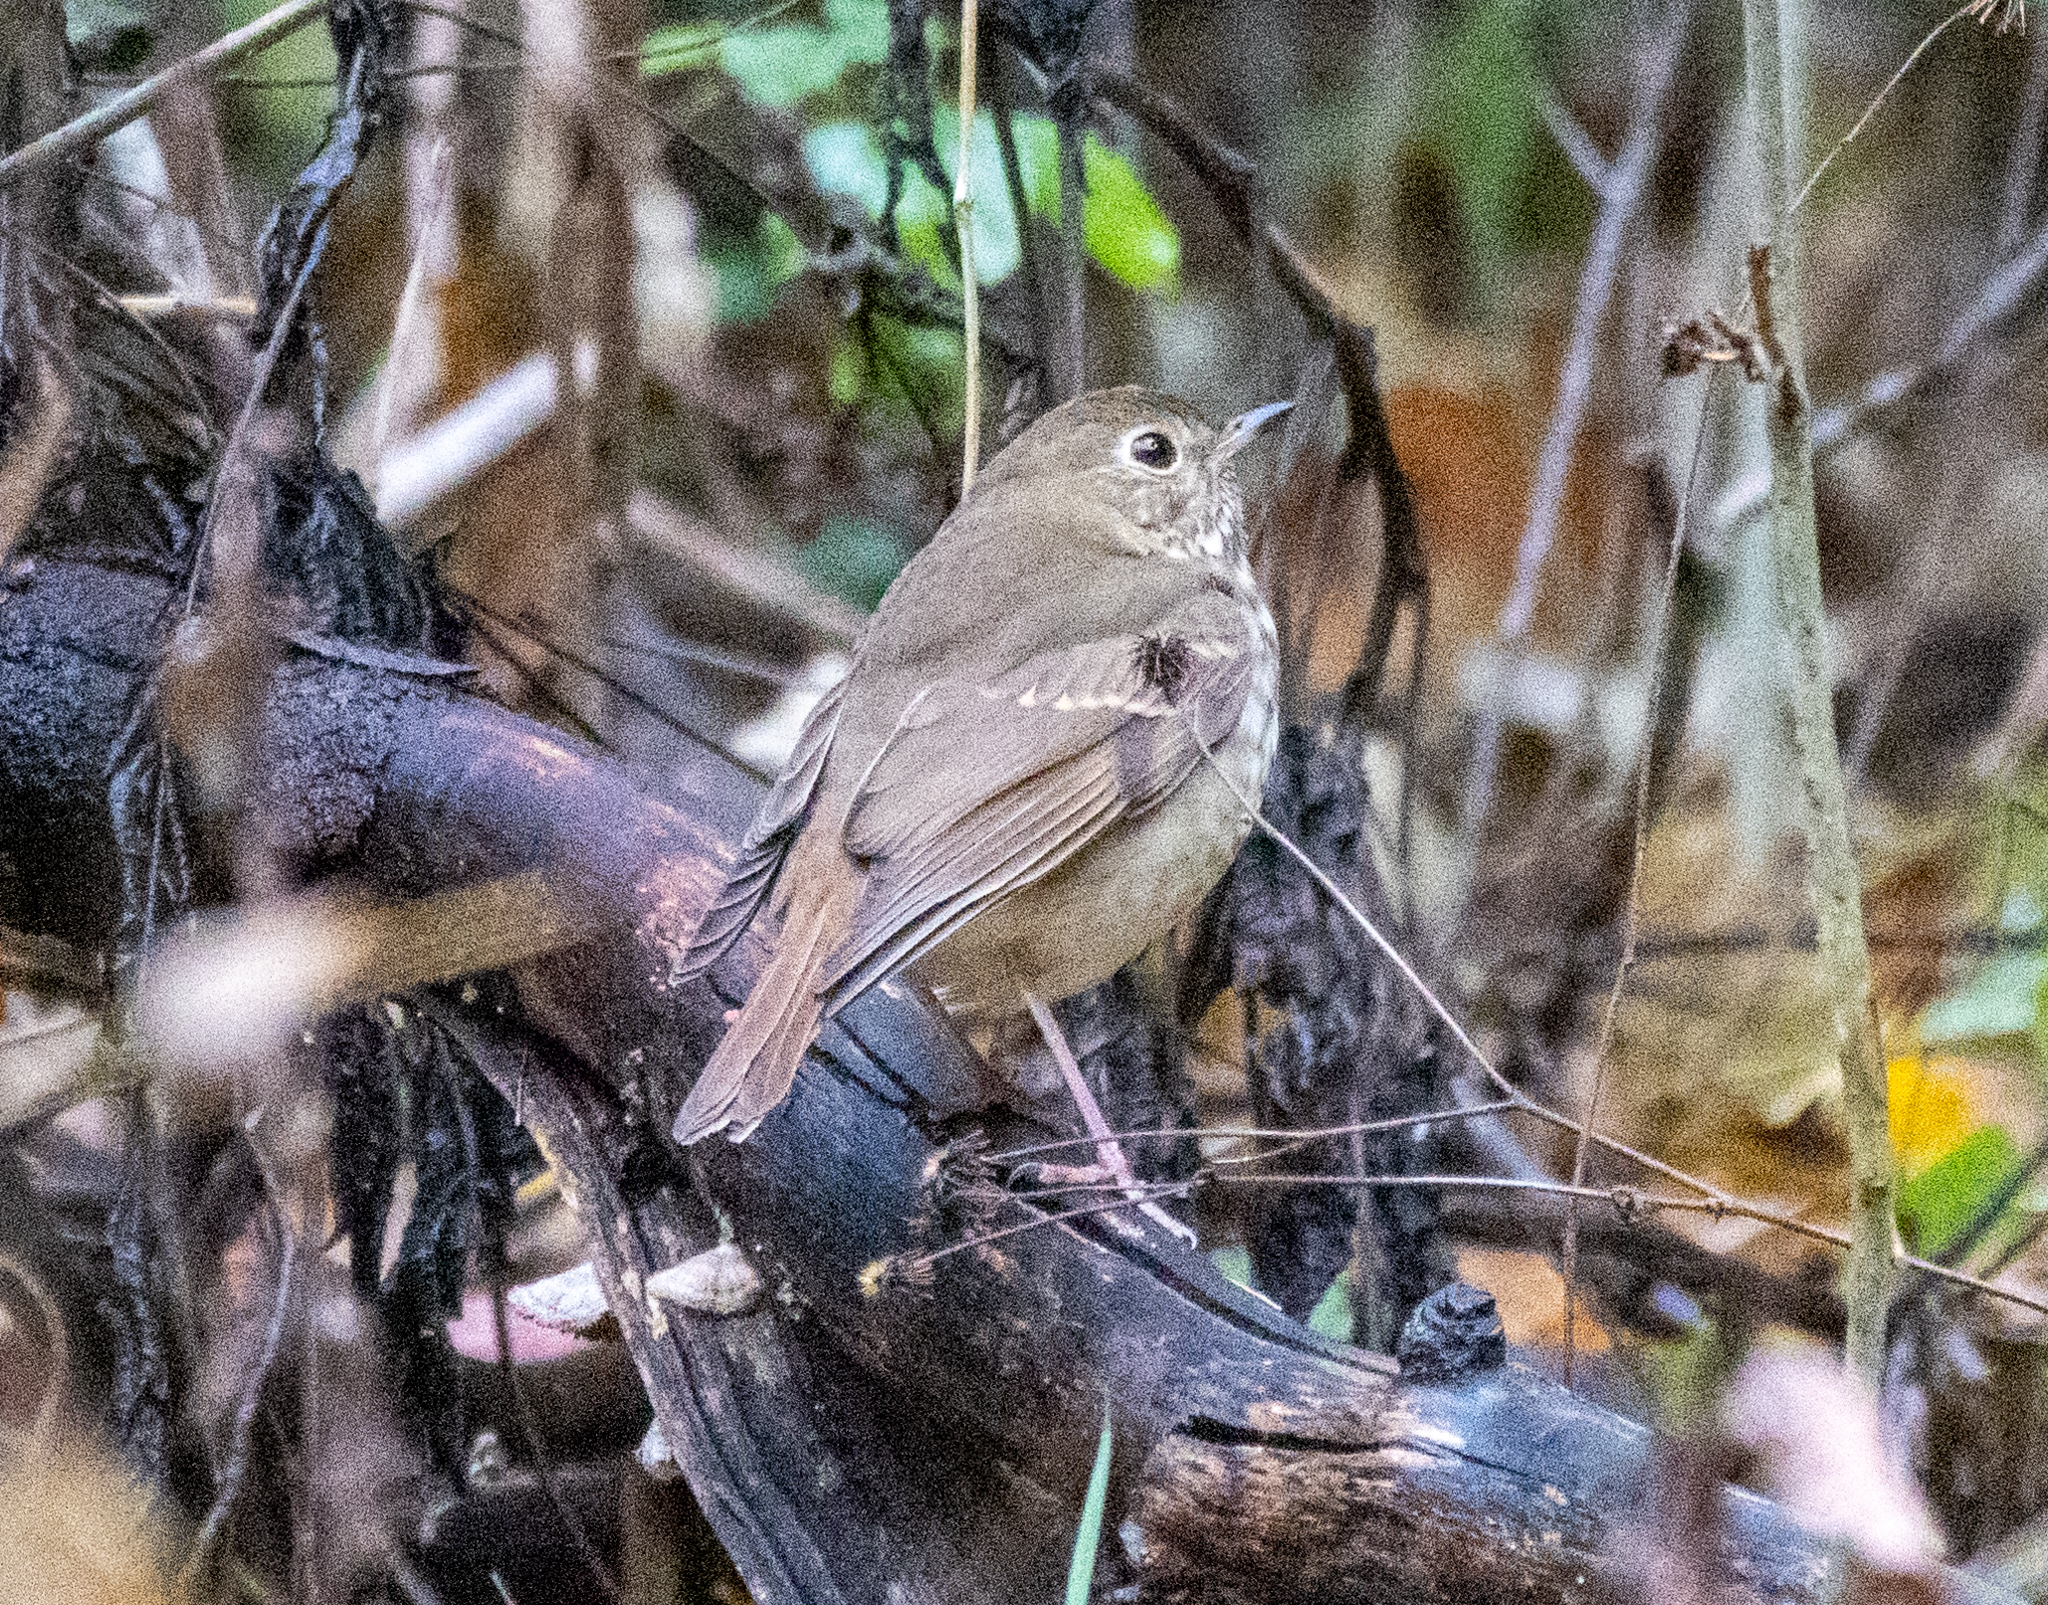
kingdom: Animalia
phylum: Chordata
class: Aves
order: Passeriformes
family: Turdidae
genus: Catharus
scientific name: Catharus guttatus
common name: Hermit thrush
